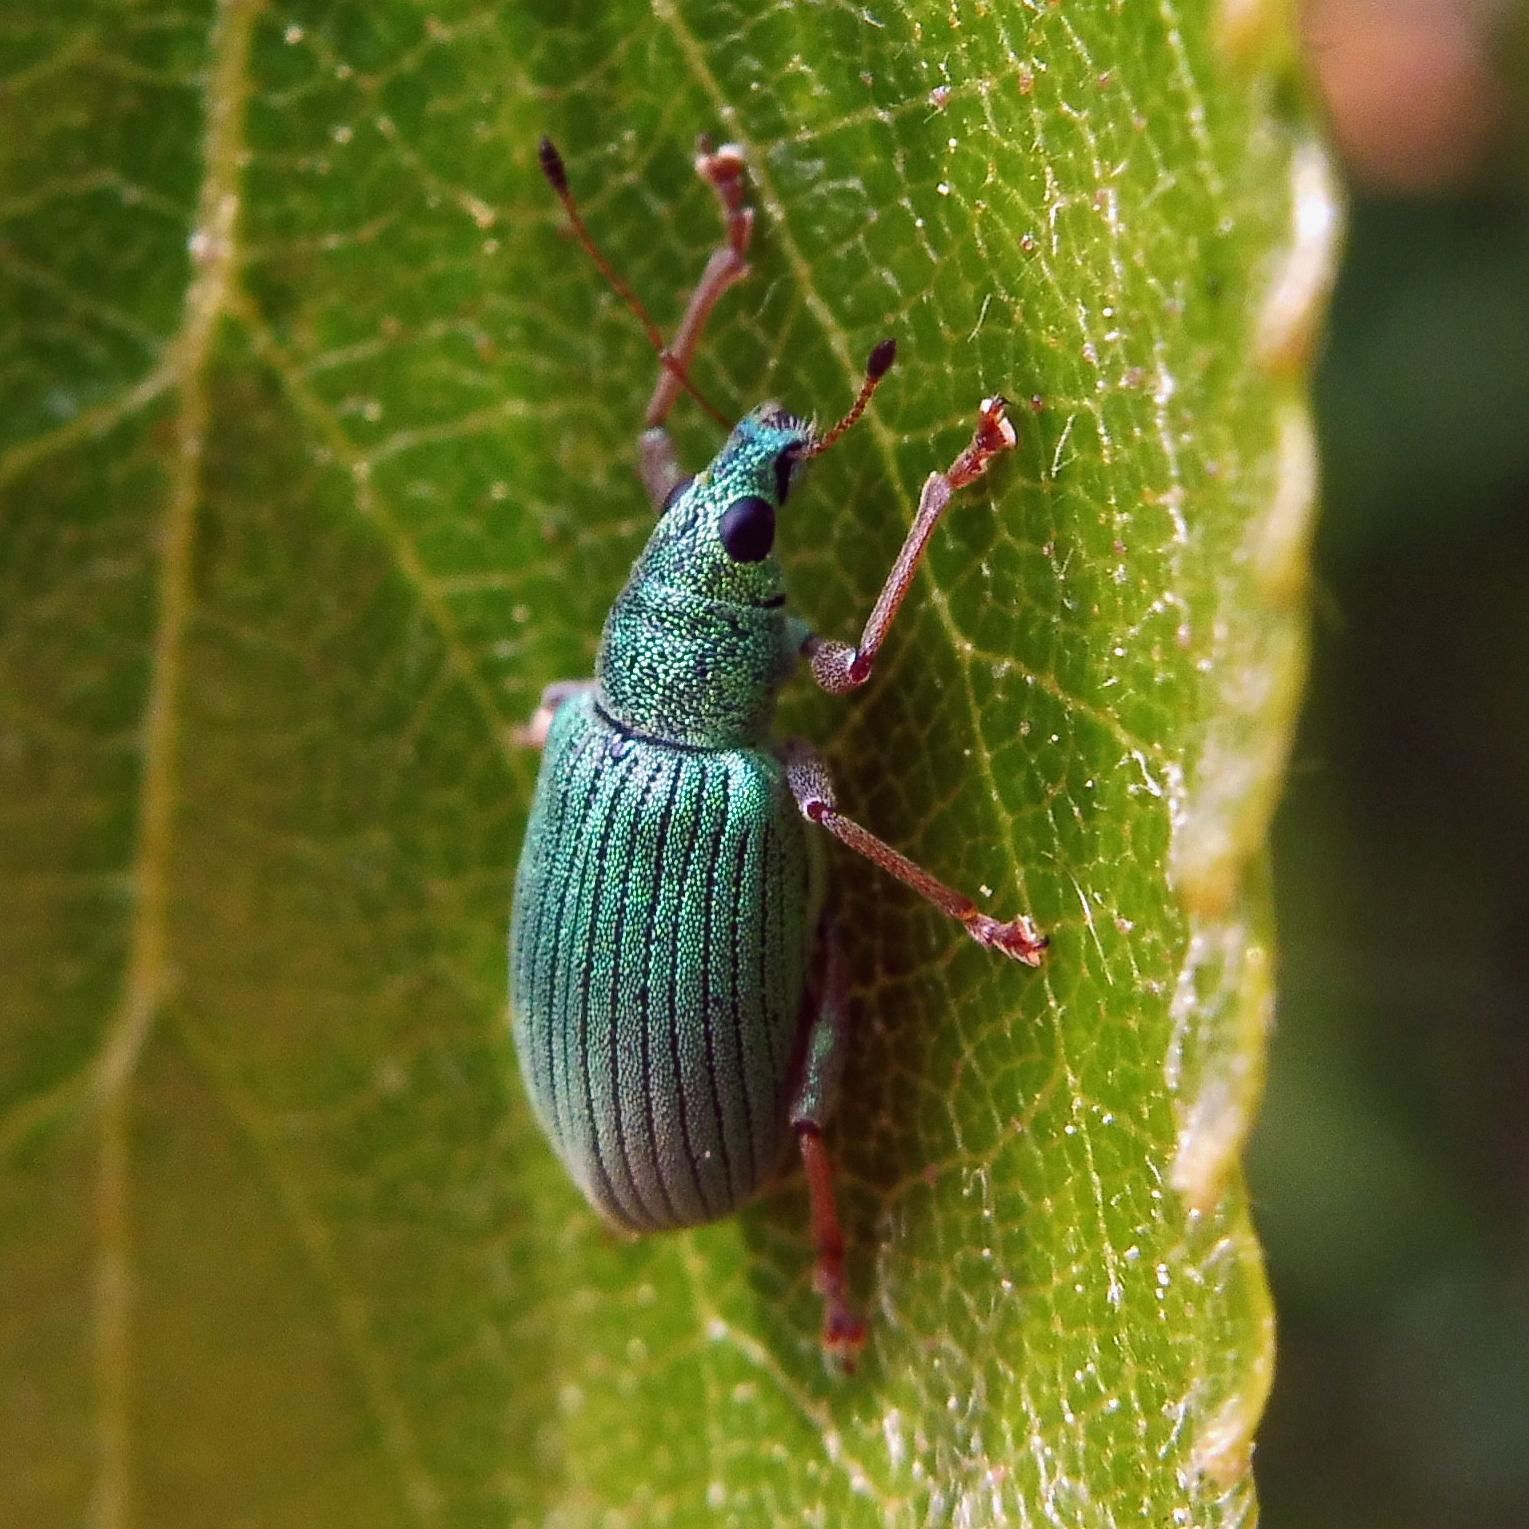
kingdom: Animalia
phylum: Arthropoda
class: Insecta
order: Coleoptera
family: Curculionidae
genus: Polydrusus
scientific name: Polydrusus formosus
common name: Weevil
